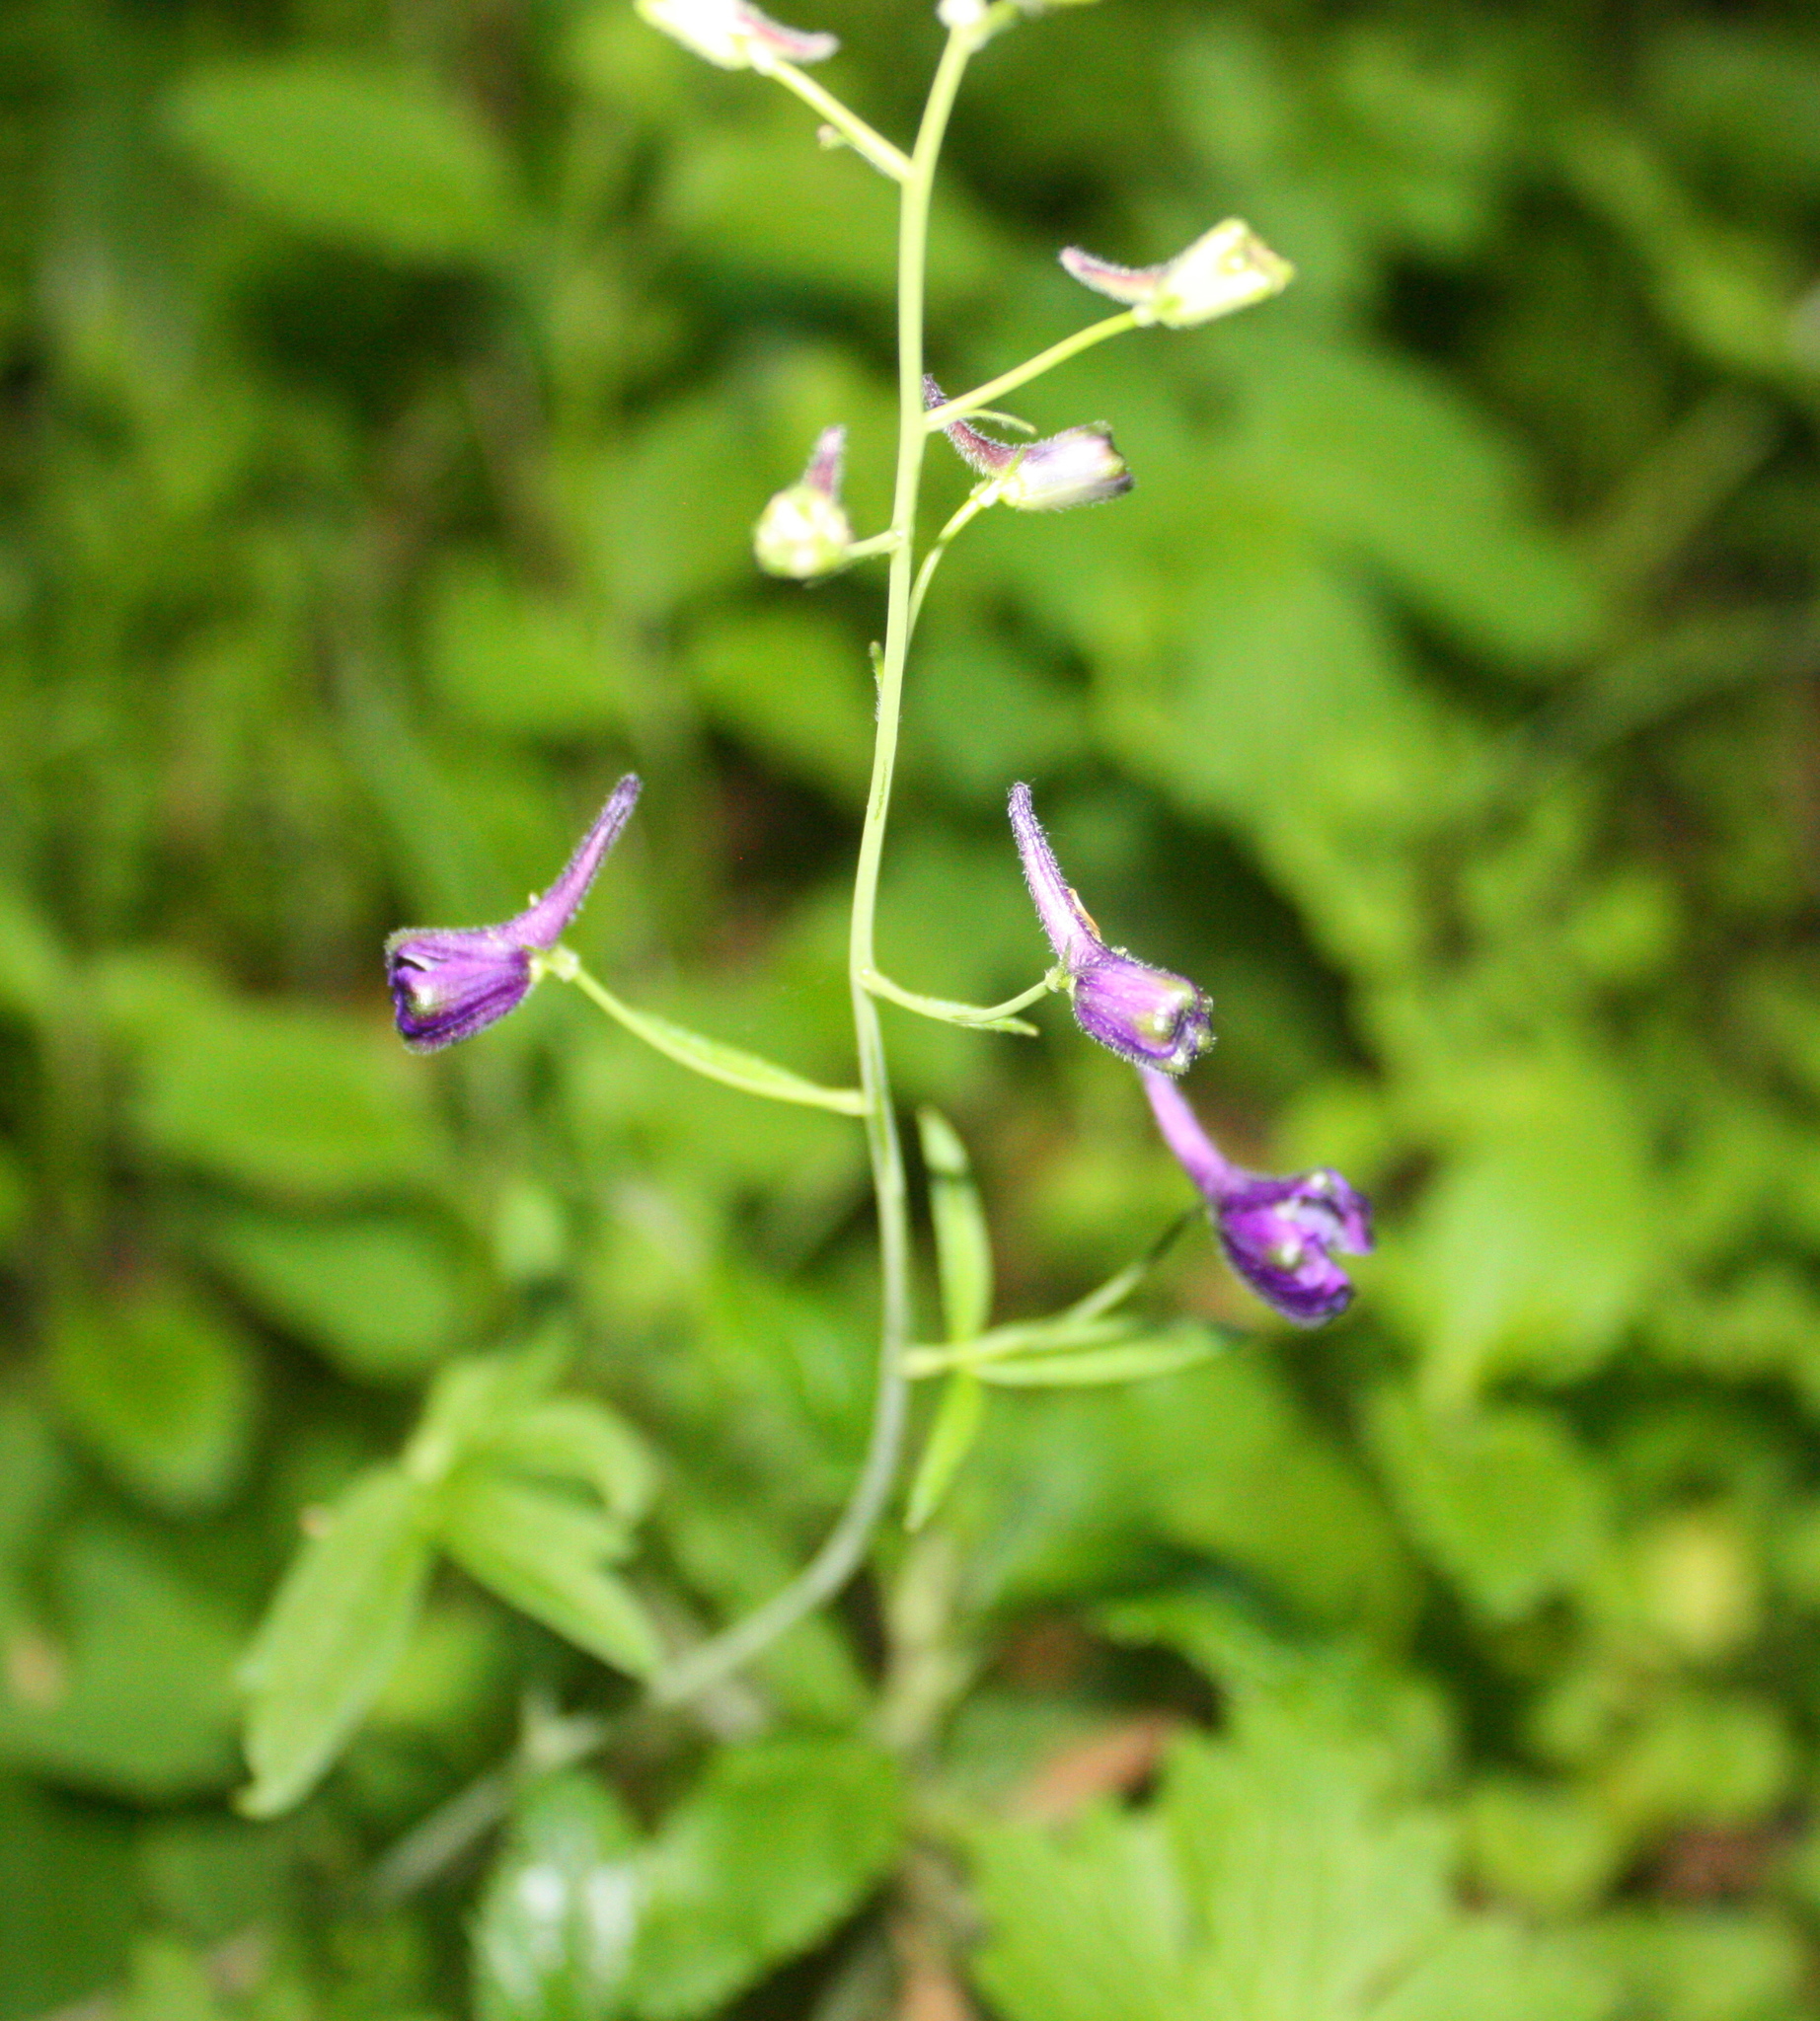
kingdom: Plantae
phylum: Tracheophyta
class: Magnoliopsida
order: Ranunculales
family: Ranunculaceae
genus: Delphinium
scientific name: Delphinium patens
